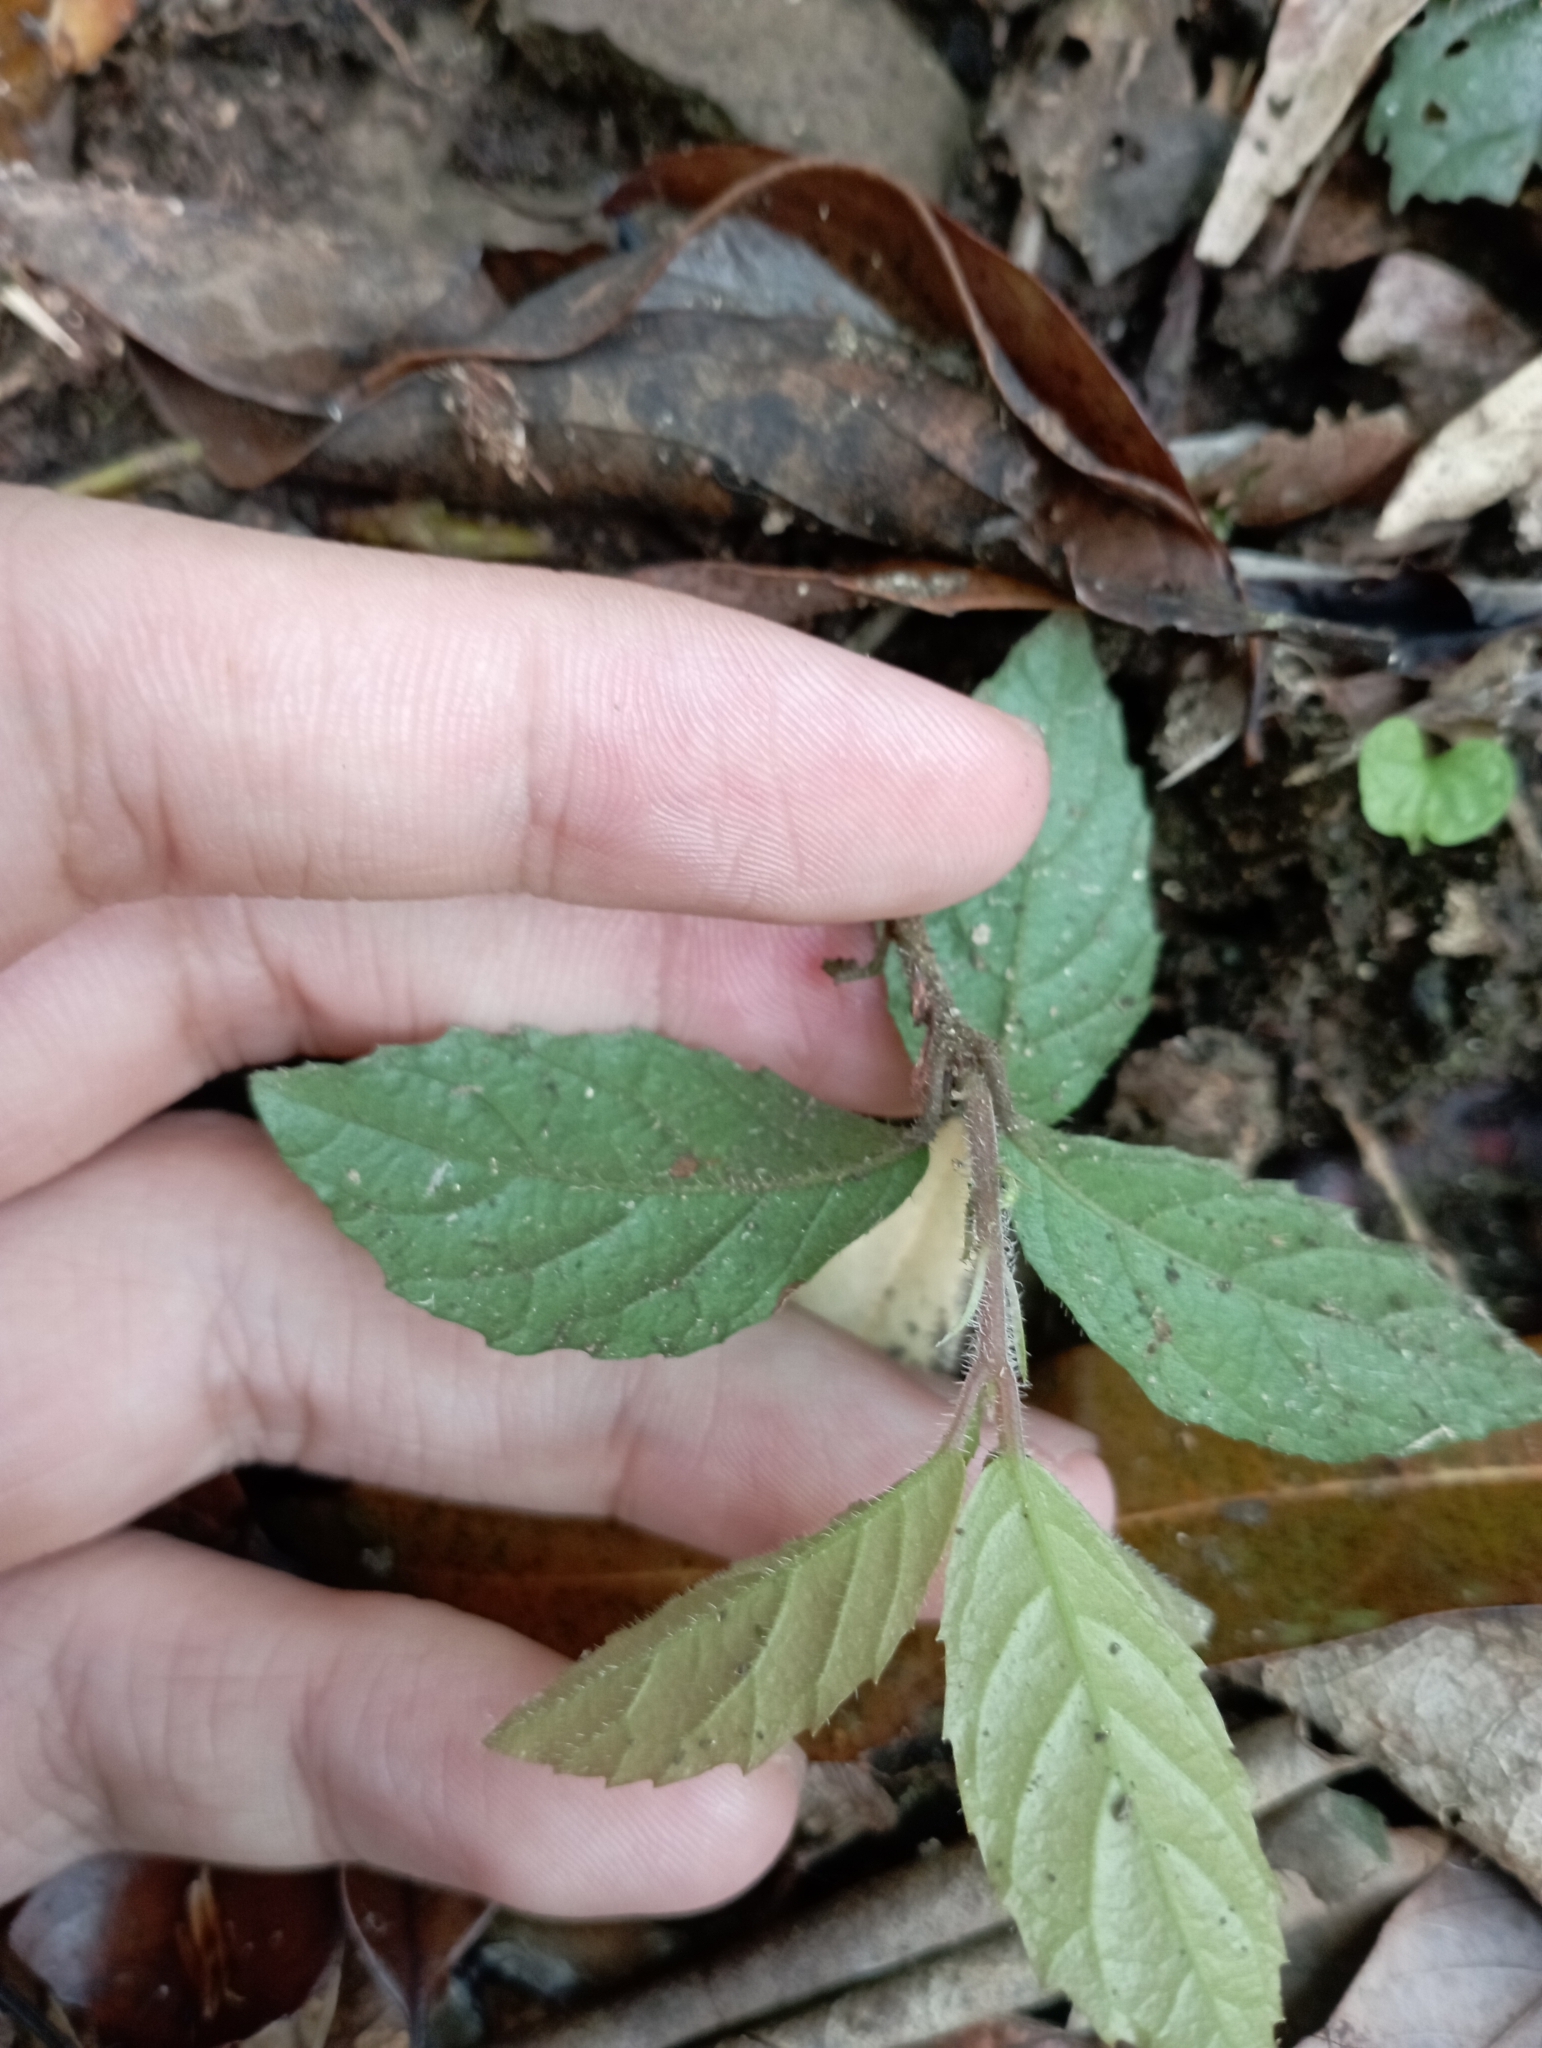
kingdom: Plantae
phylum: Tracheophyta
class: Magnoliopsida
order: Ericales
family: Primulaceae
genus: Ardisia
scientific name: Ardisia pusilla
